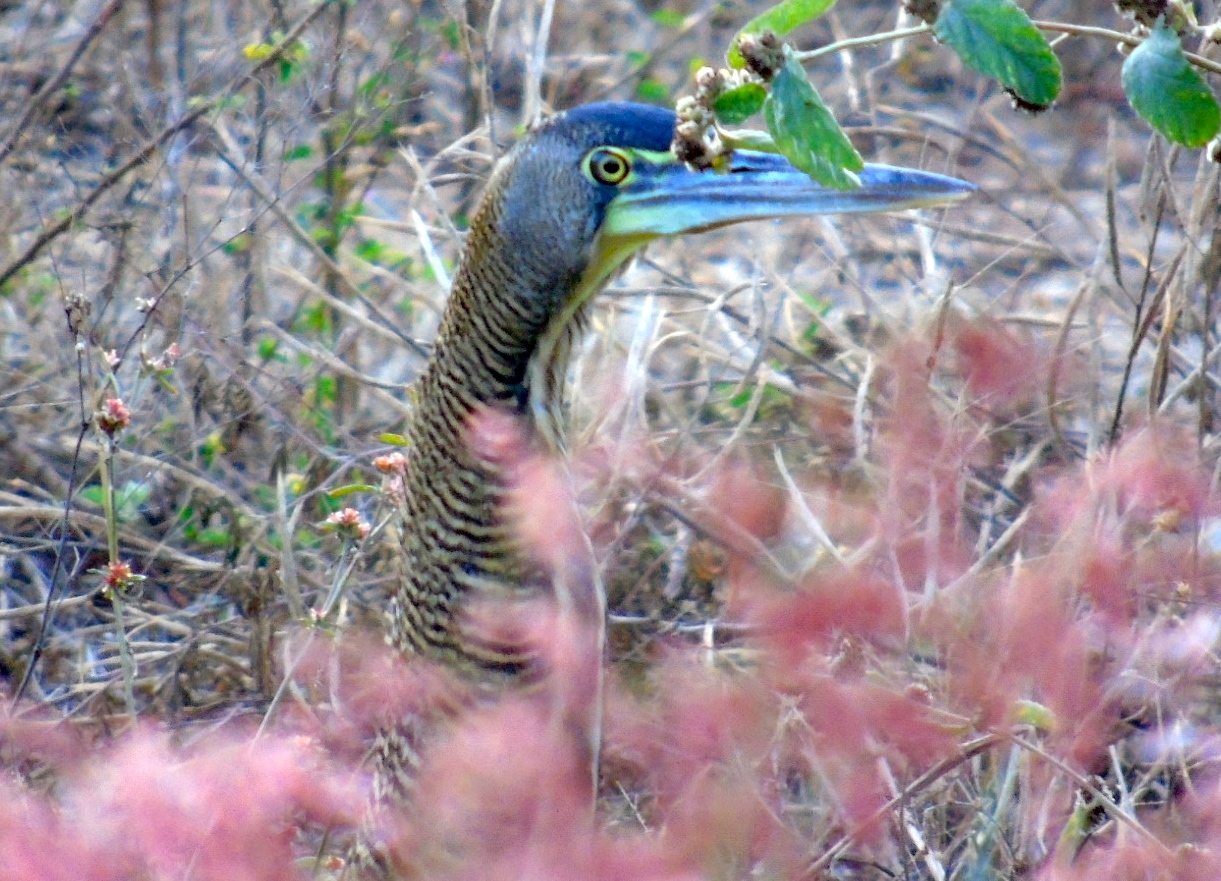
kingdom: Animalia
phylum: Chordata
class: Aves
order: Pelecaniformes
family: Ardeidae
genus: Tigrisoma
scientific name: Tigrisoma mexicanum
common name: Bare-throated tiger-heron
